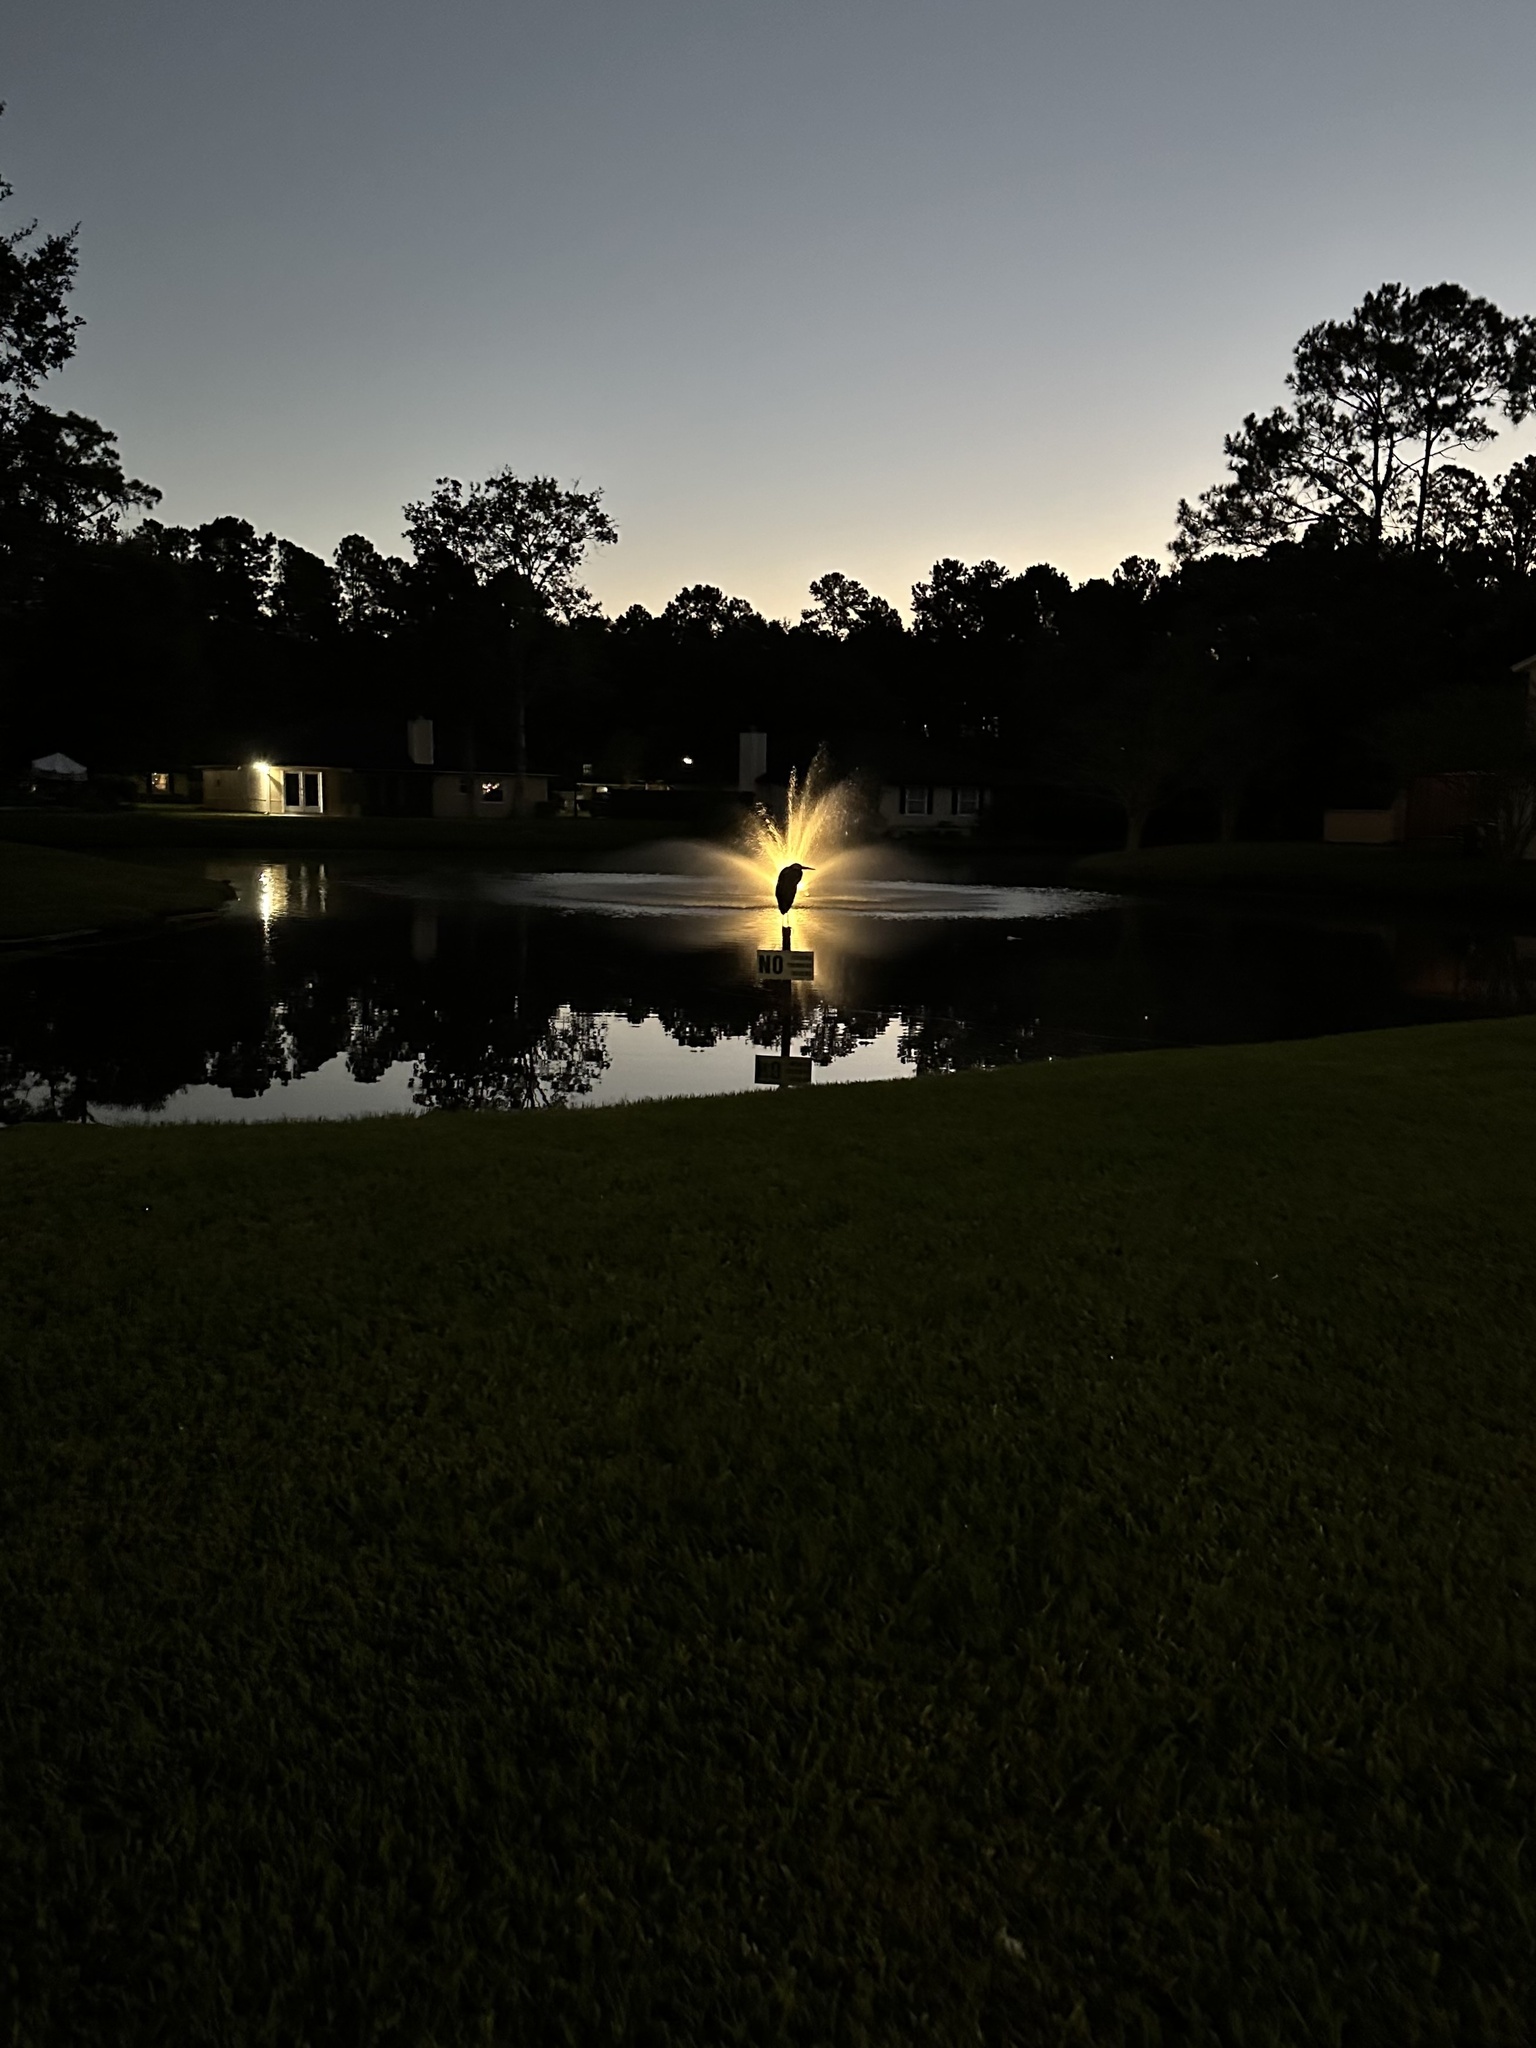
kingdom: Animalia
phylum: Chordata
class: Aves
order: Pelecaniformes
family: Ardeidae
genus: Ardea
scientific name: Ardea herodias
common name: Great blue heron
